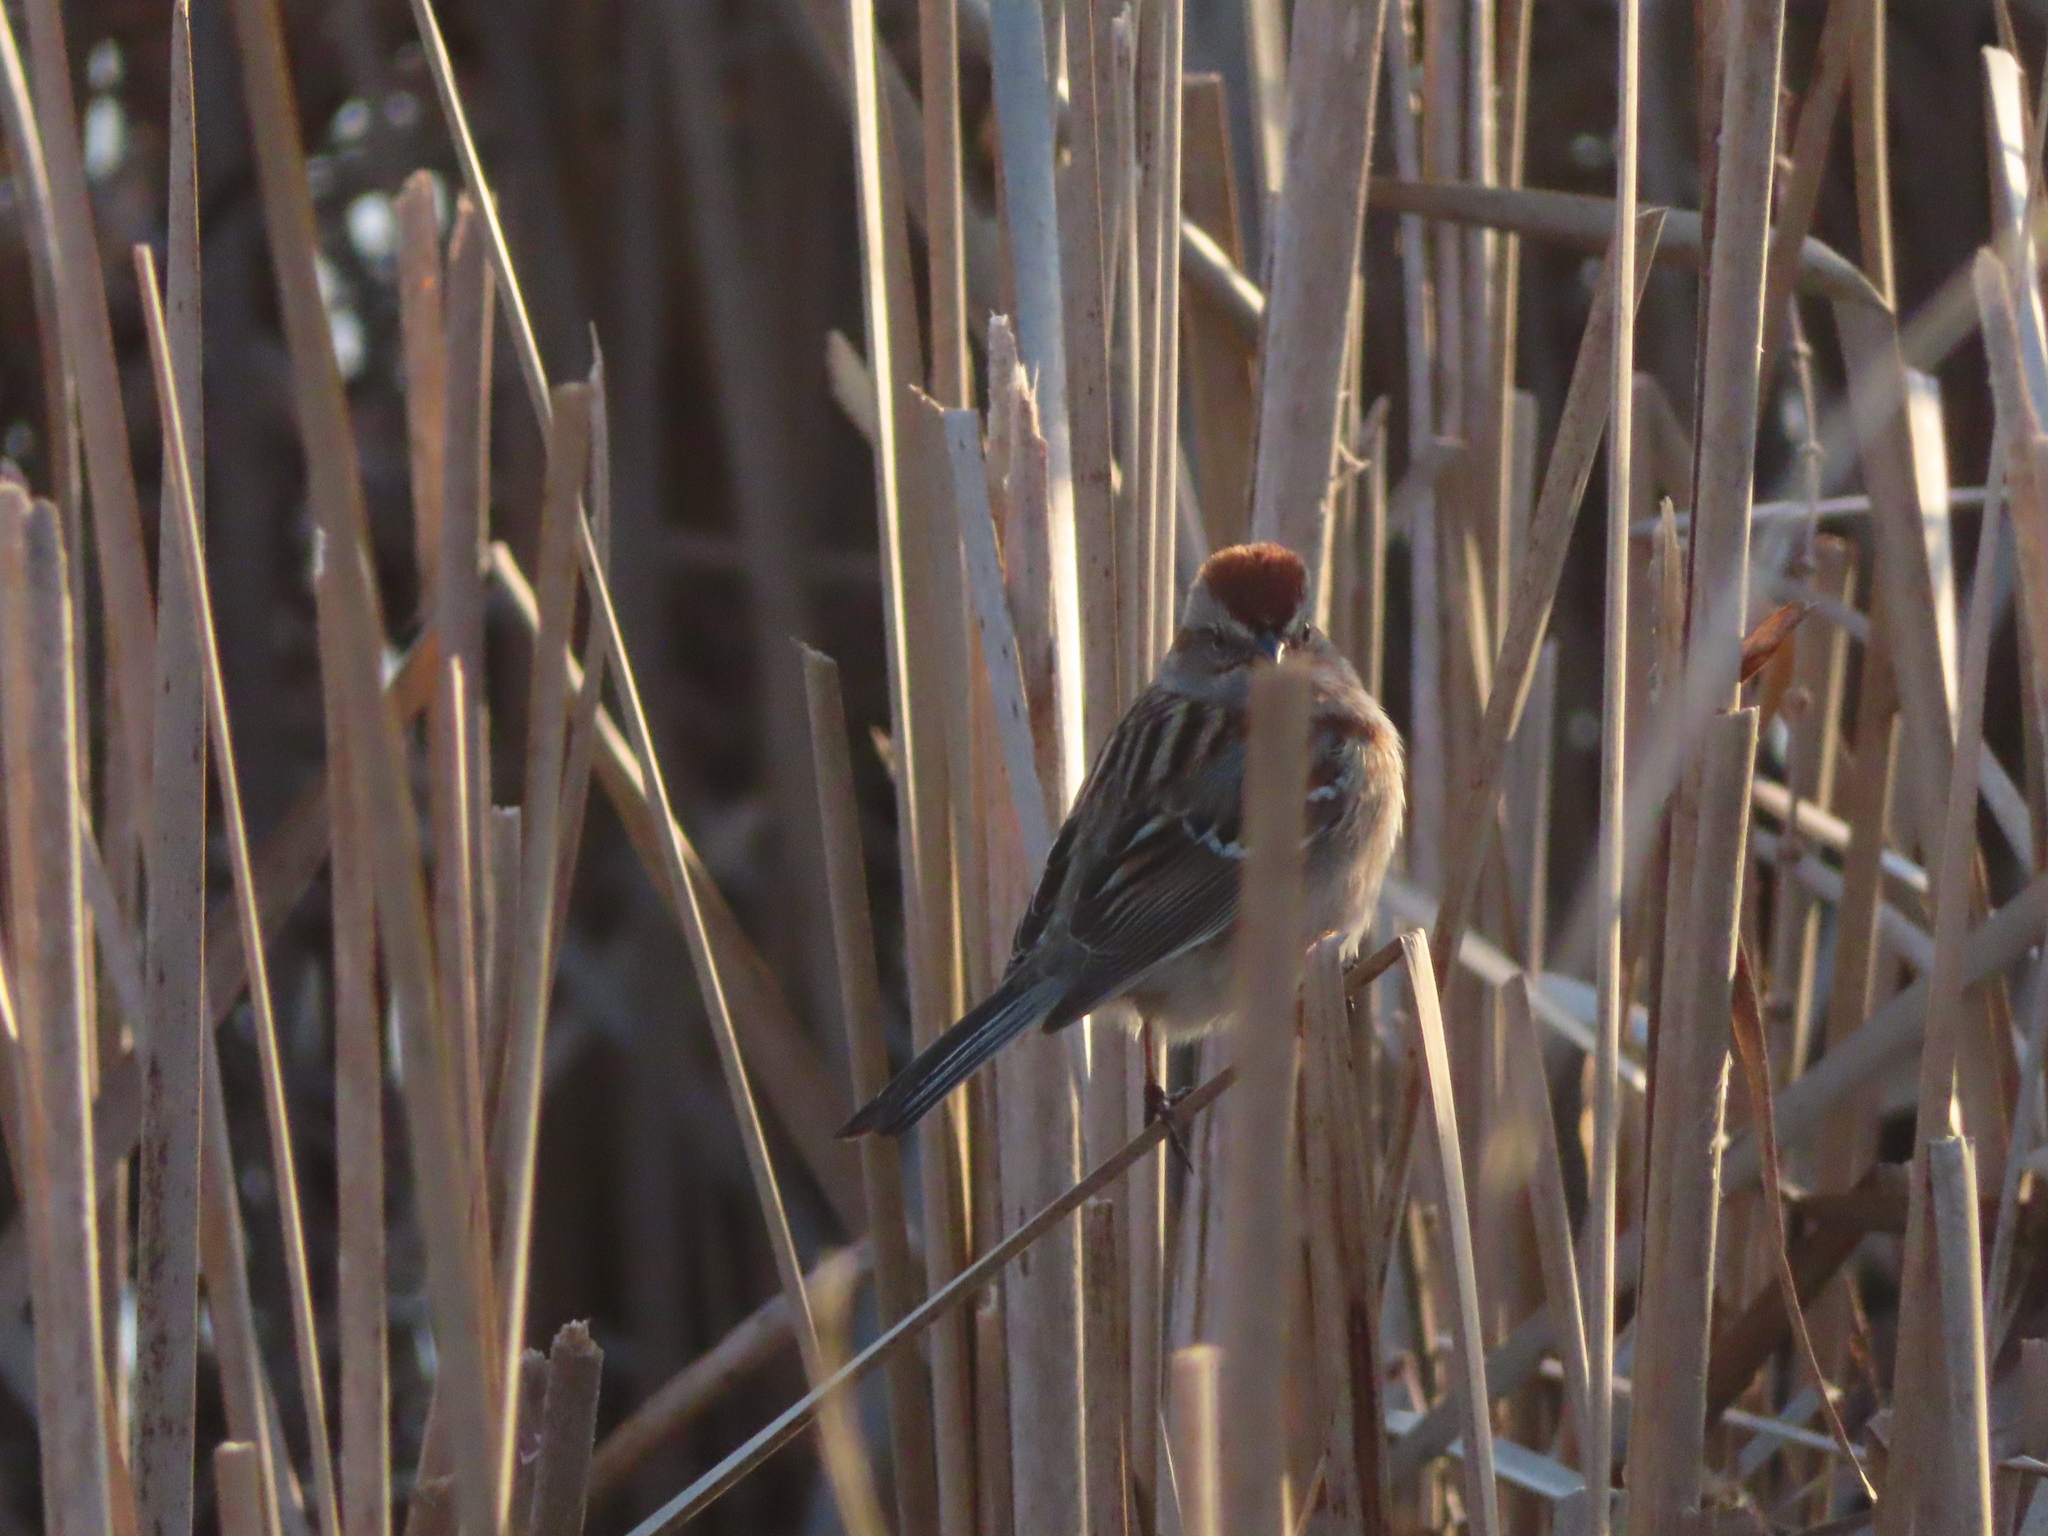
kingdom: Animalia
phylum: Chordata
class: Aves
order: Passeriformes
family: Passerellidae
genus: Spizelloides
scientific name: Spizelloides arborea
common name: American tree sparrow
